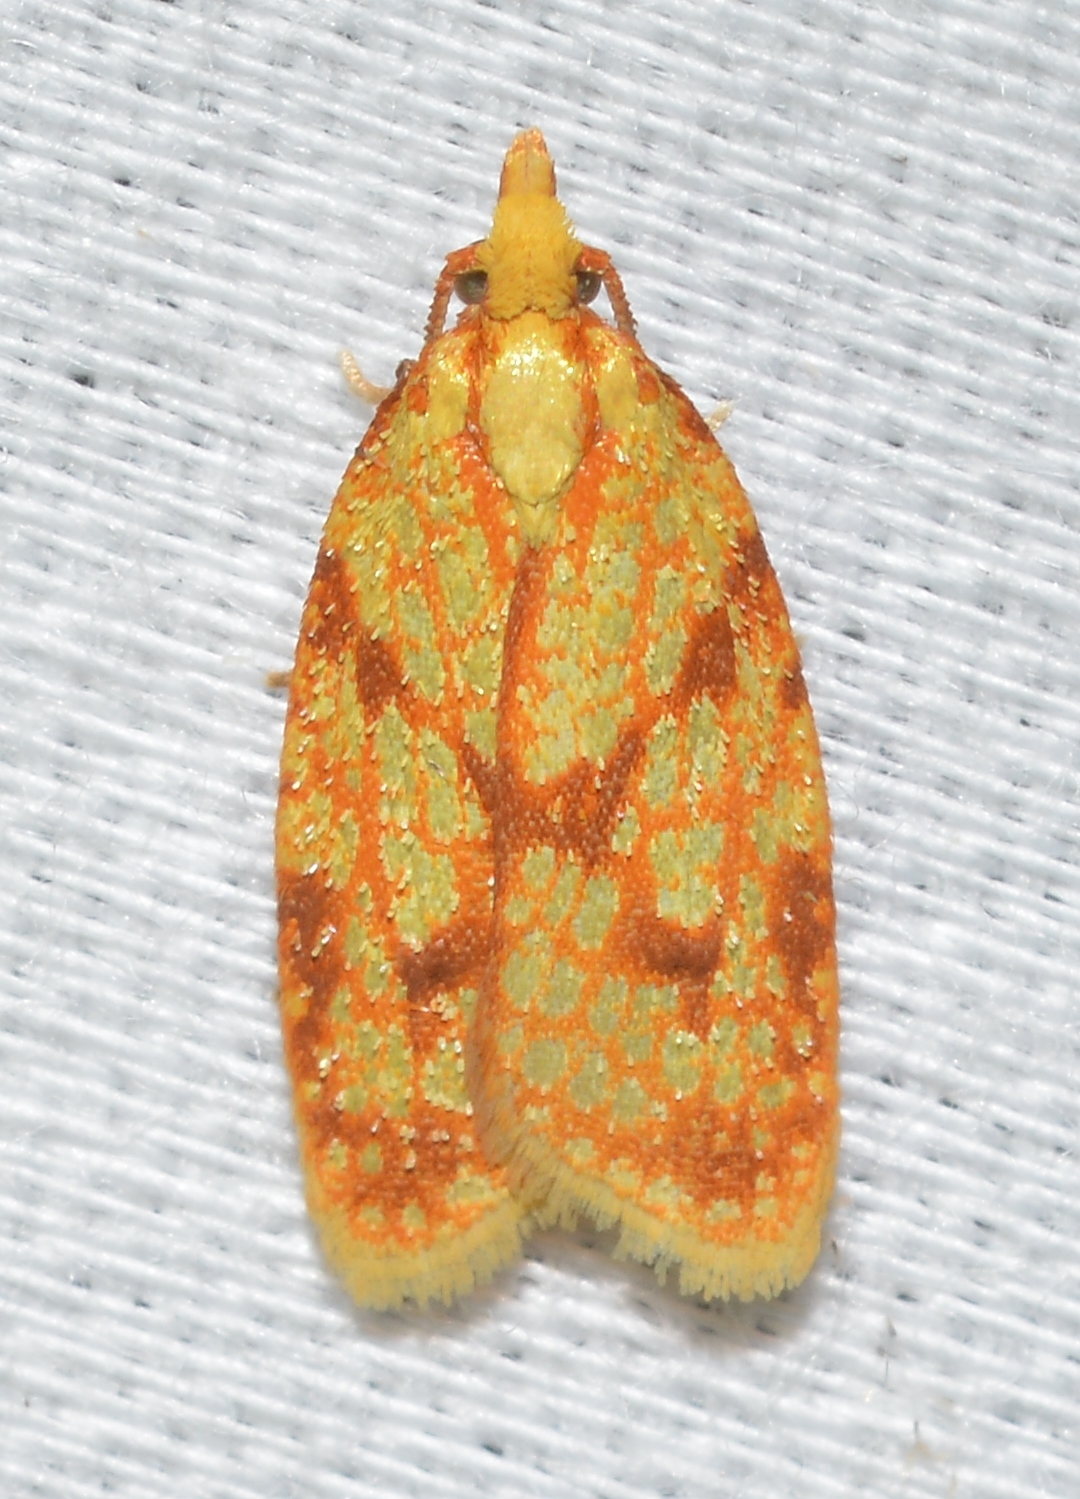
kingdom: Animalia
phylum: Arthropoda
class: Insecta
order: Lepidoptera
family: Tortricidae
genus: Sparganothis
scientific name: Sparganothis sulfureana
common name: Sparganothis fruitworm moth
